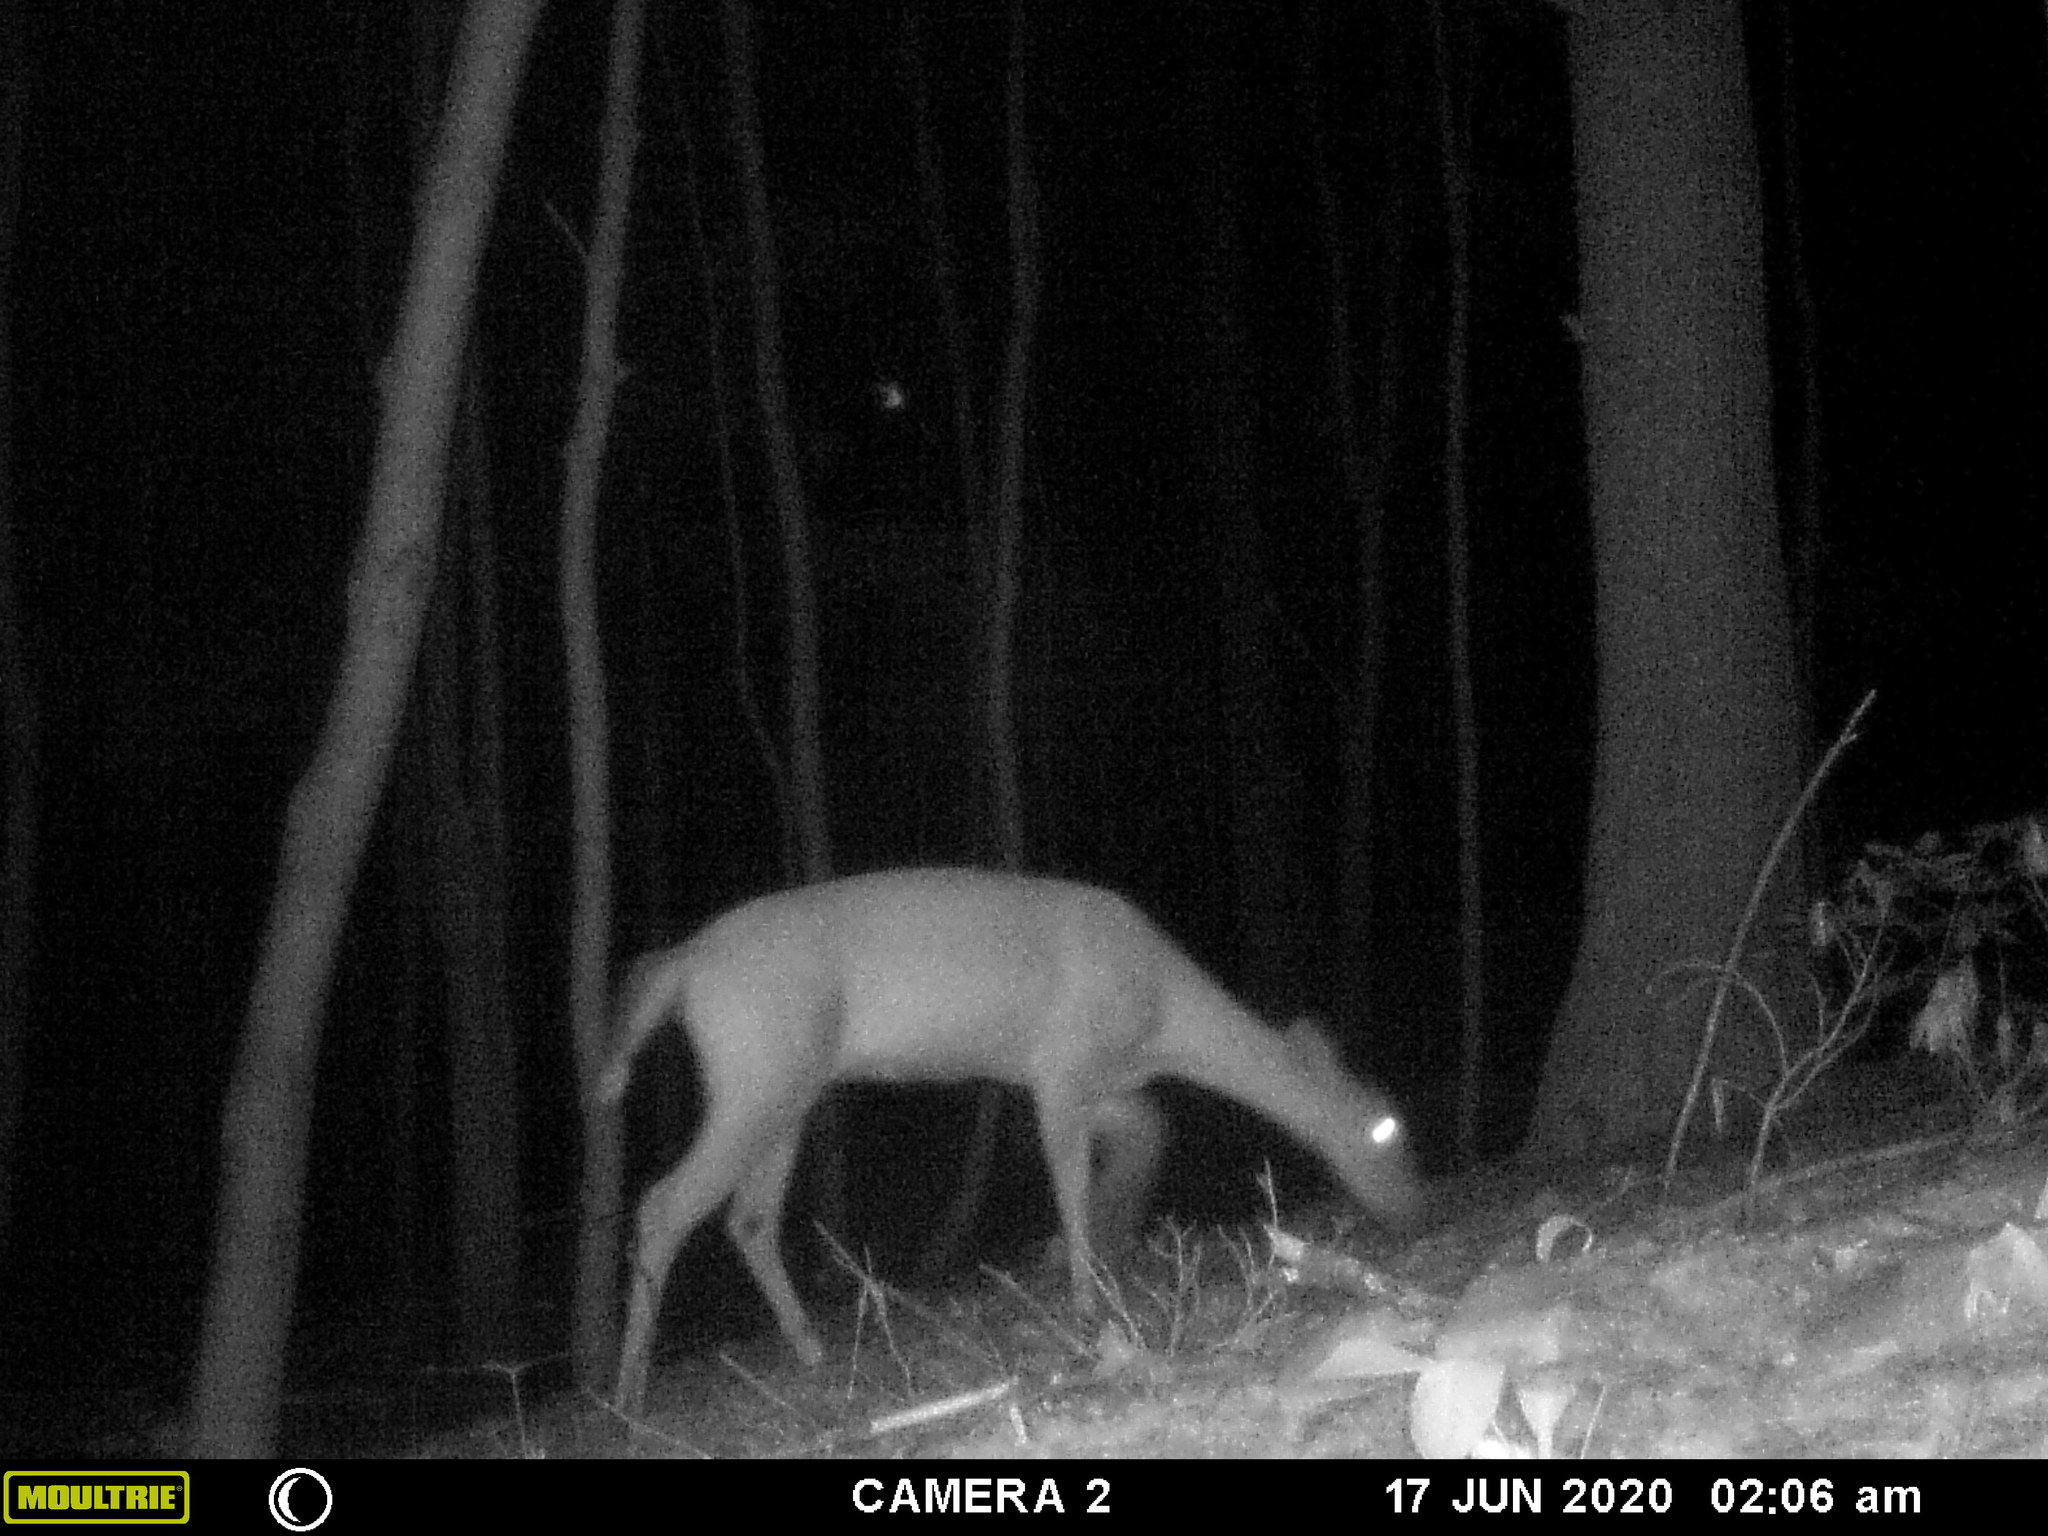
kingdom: Animalia
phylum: Chordata
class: Mammalia
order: Artiodactyla
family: Cervidae
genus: Odocoileus
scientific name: Odocoileus virginianus
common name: White-tailed deer
